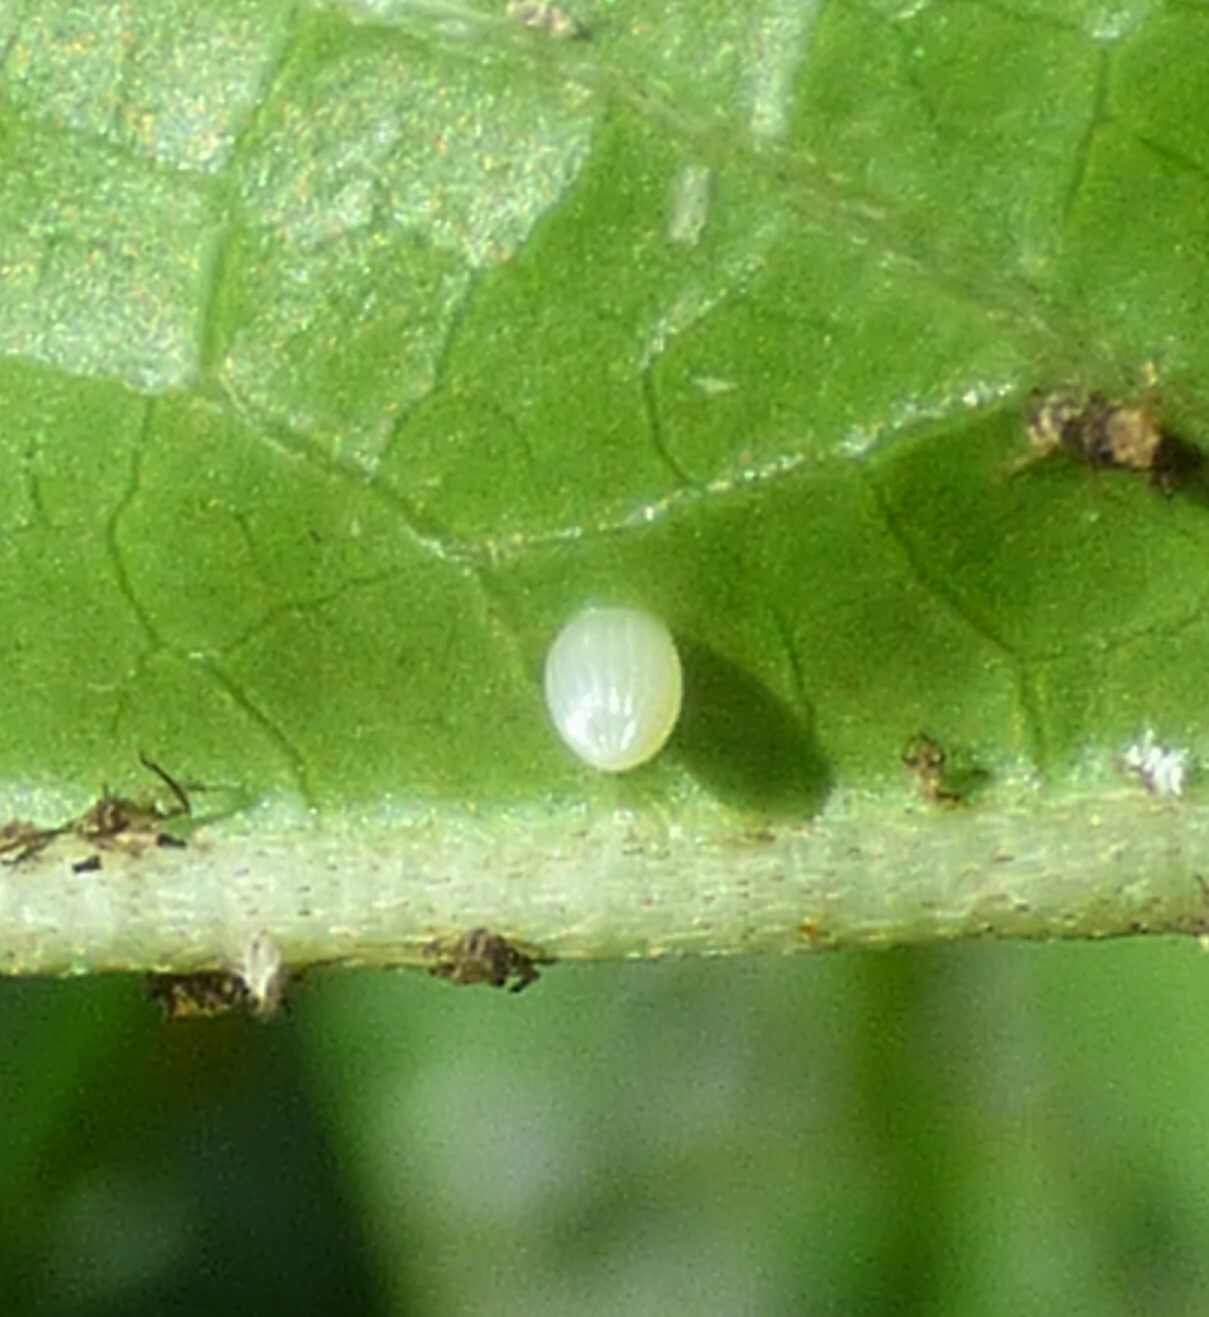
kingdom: Animalia
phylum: Arthropoda
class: Insecta
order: Lepidoptera
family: Nymphalidae
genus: Danaus
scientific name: Danaus plexippus
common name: Monarch
